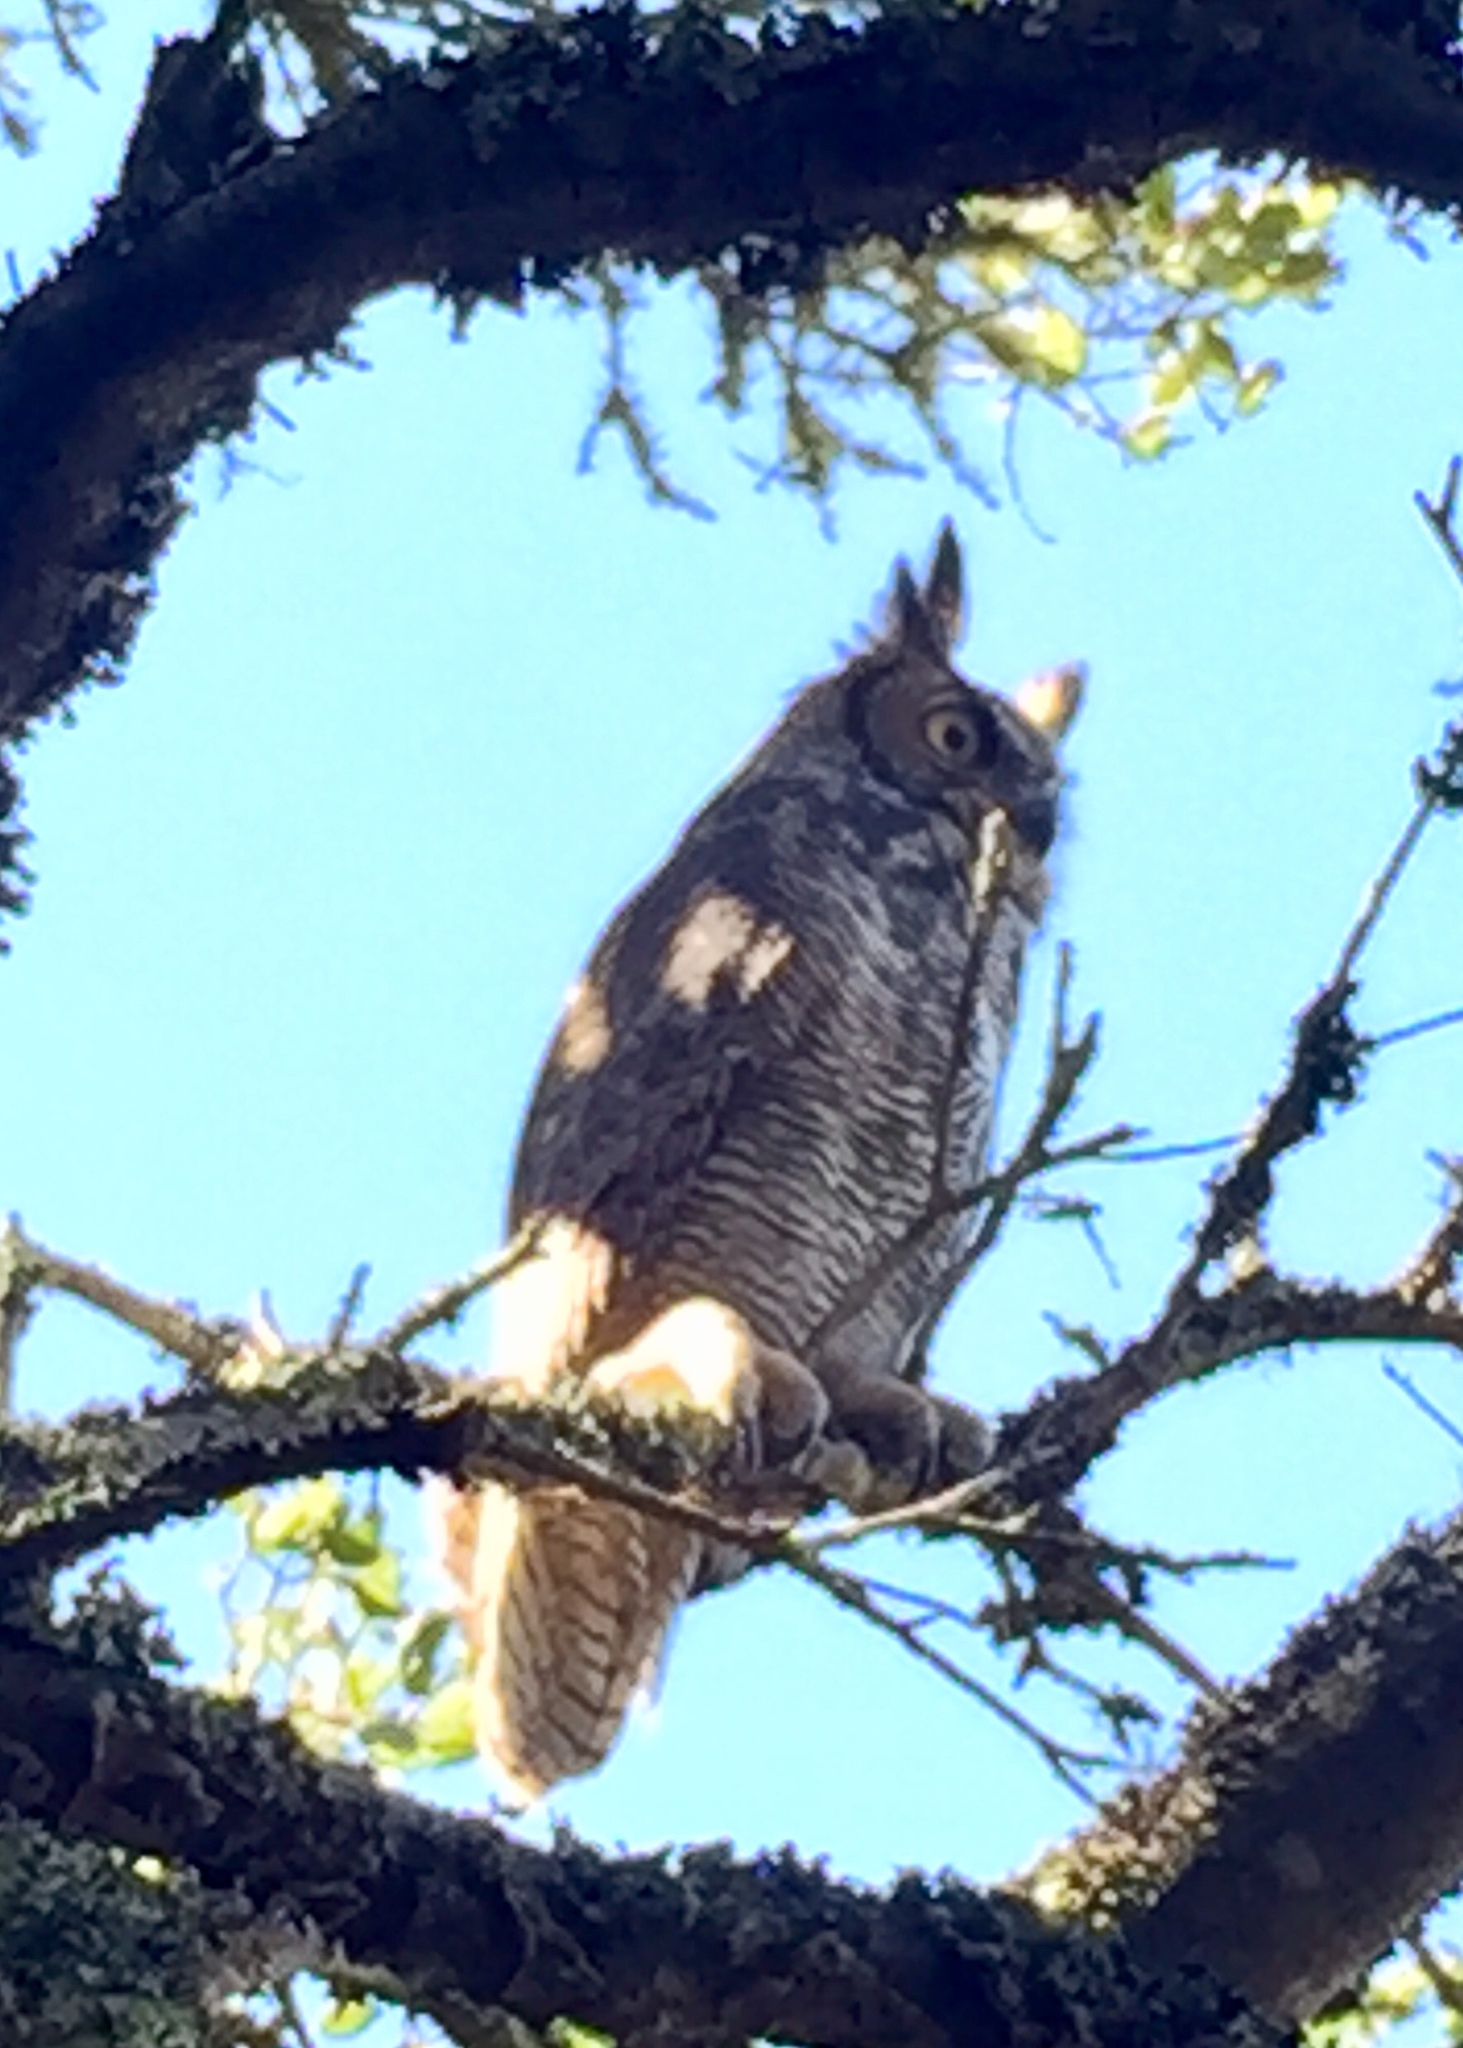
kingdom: Animalia
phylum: Chordata
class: Aves
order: Strigiformes
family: Strigidae
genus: Bubo
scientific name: Bubo virginianus
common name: Great horned owl
